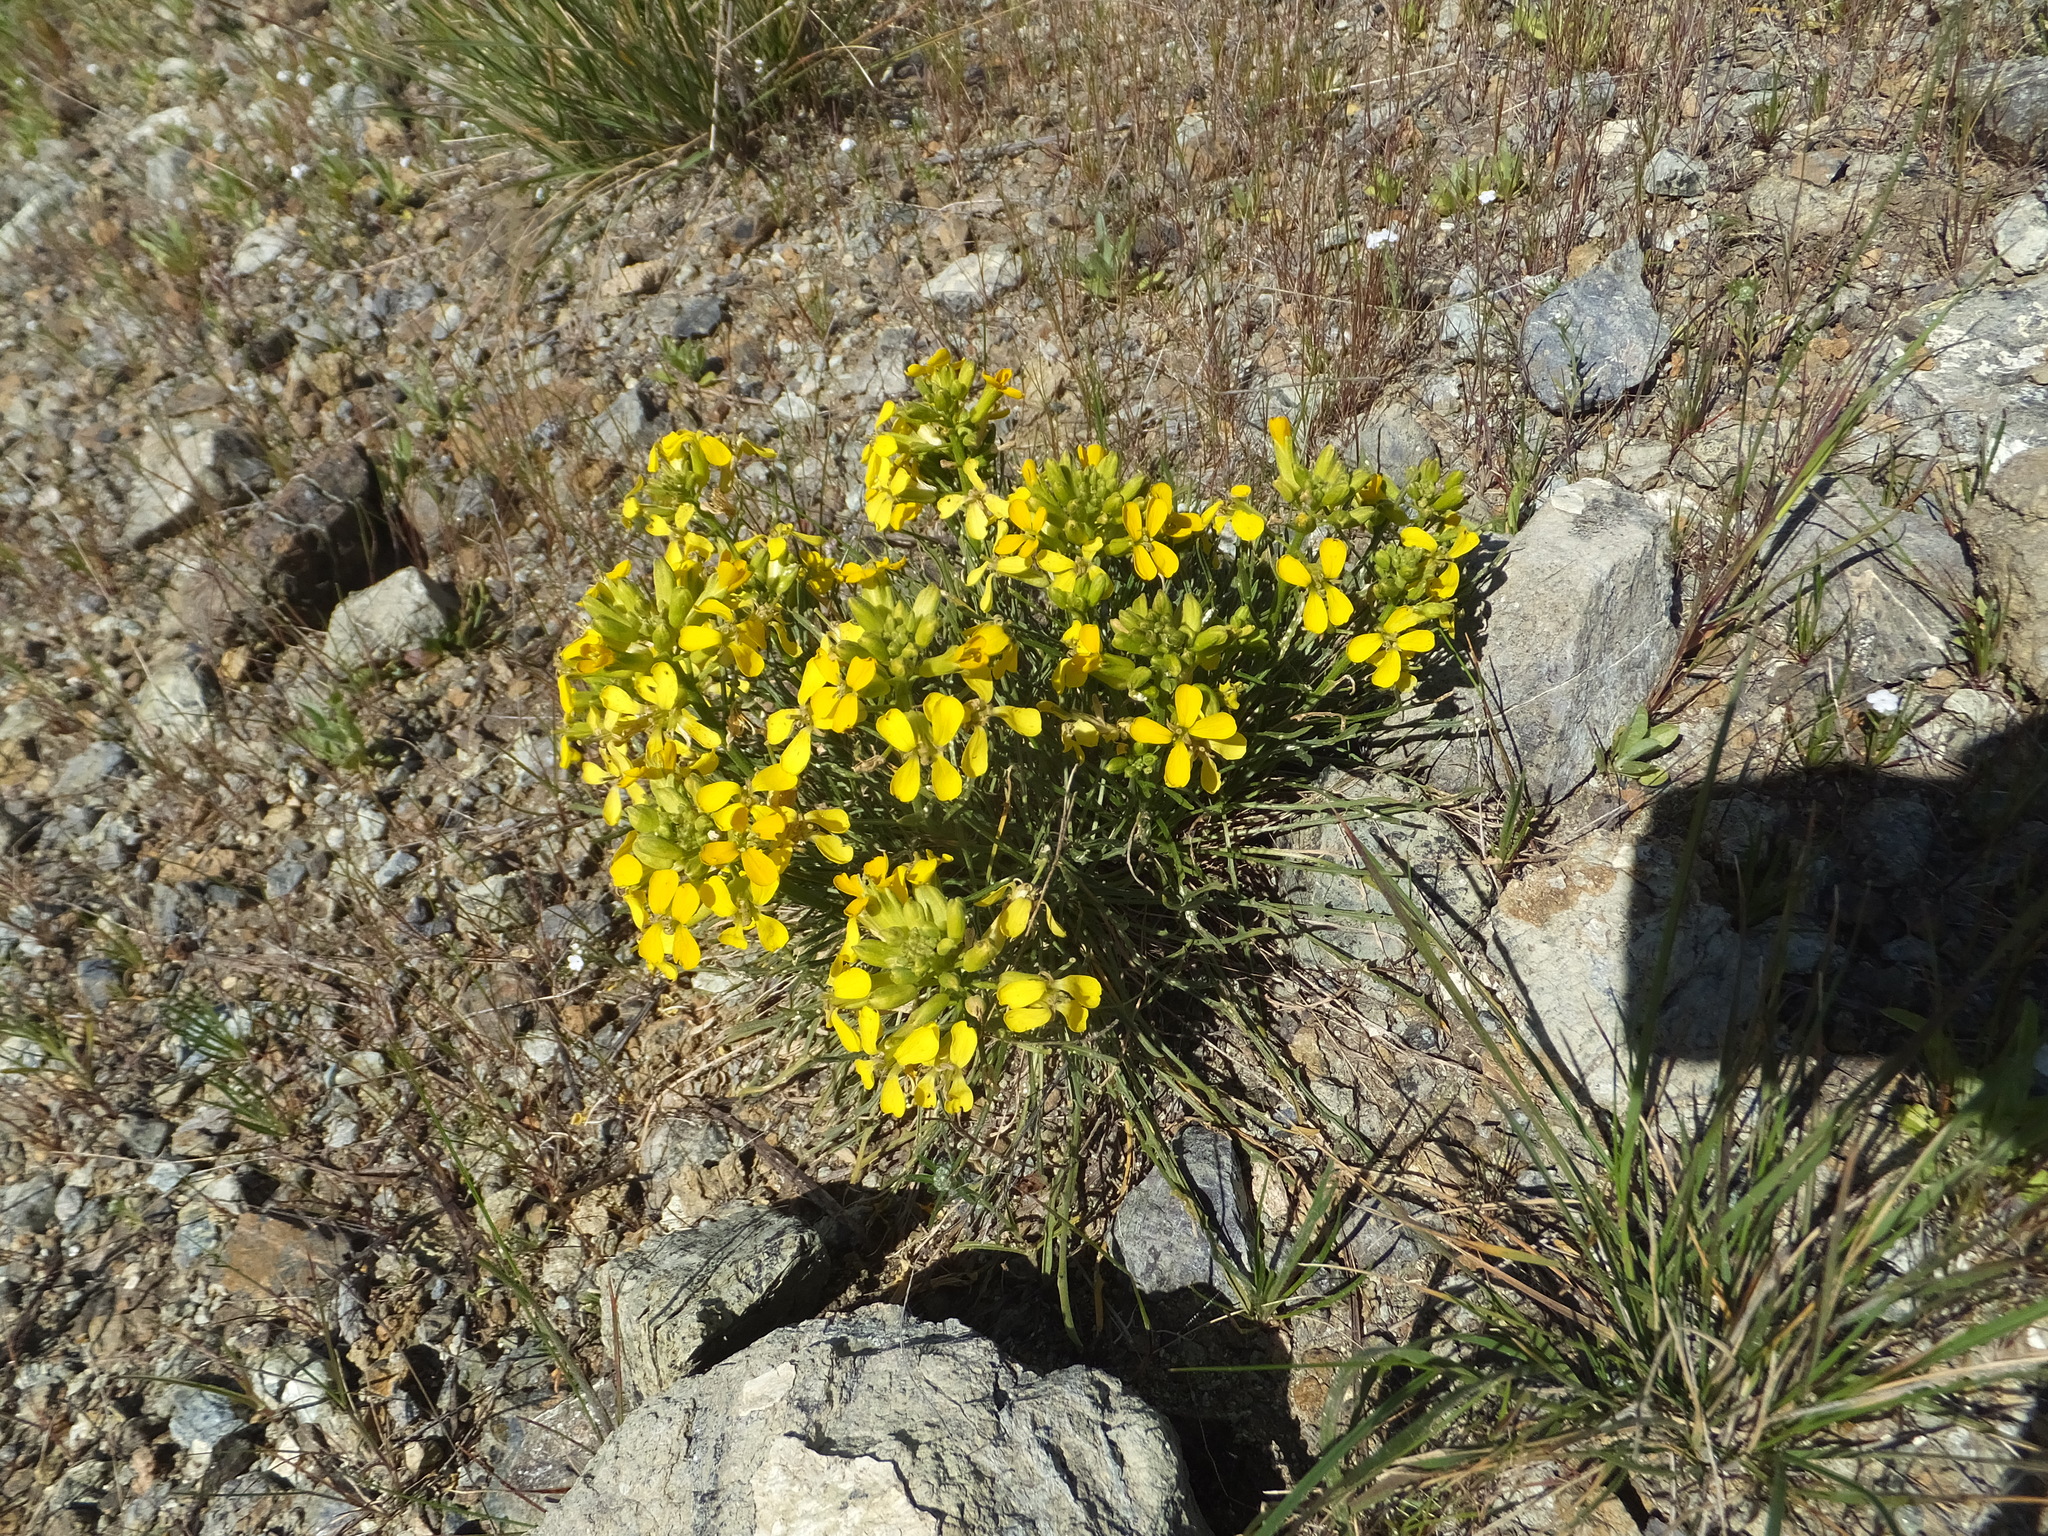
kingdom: Plantae
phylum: Tracheophyta
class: Magnoliopsida
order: Brassicales
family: Brassicaceae
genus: Erysimum
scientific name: Erysimum franciscanum
